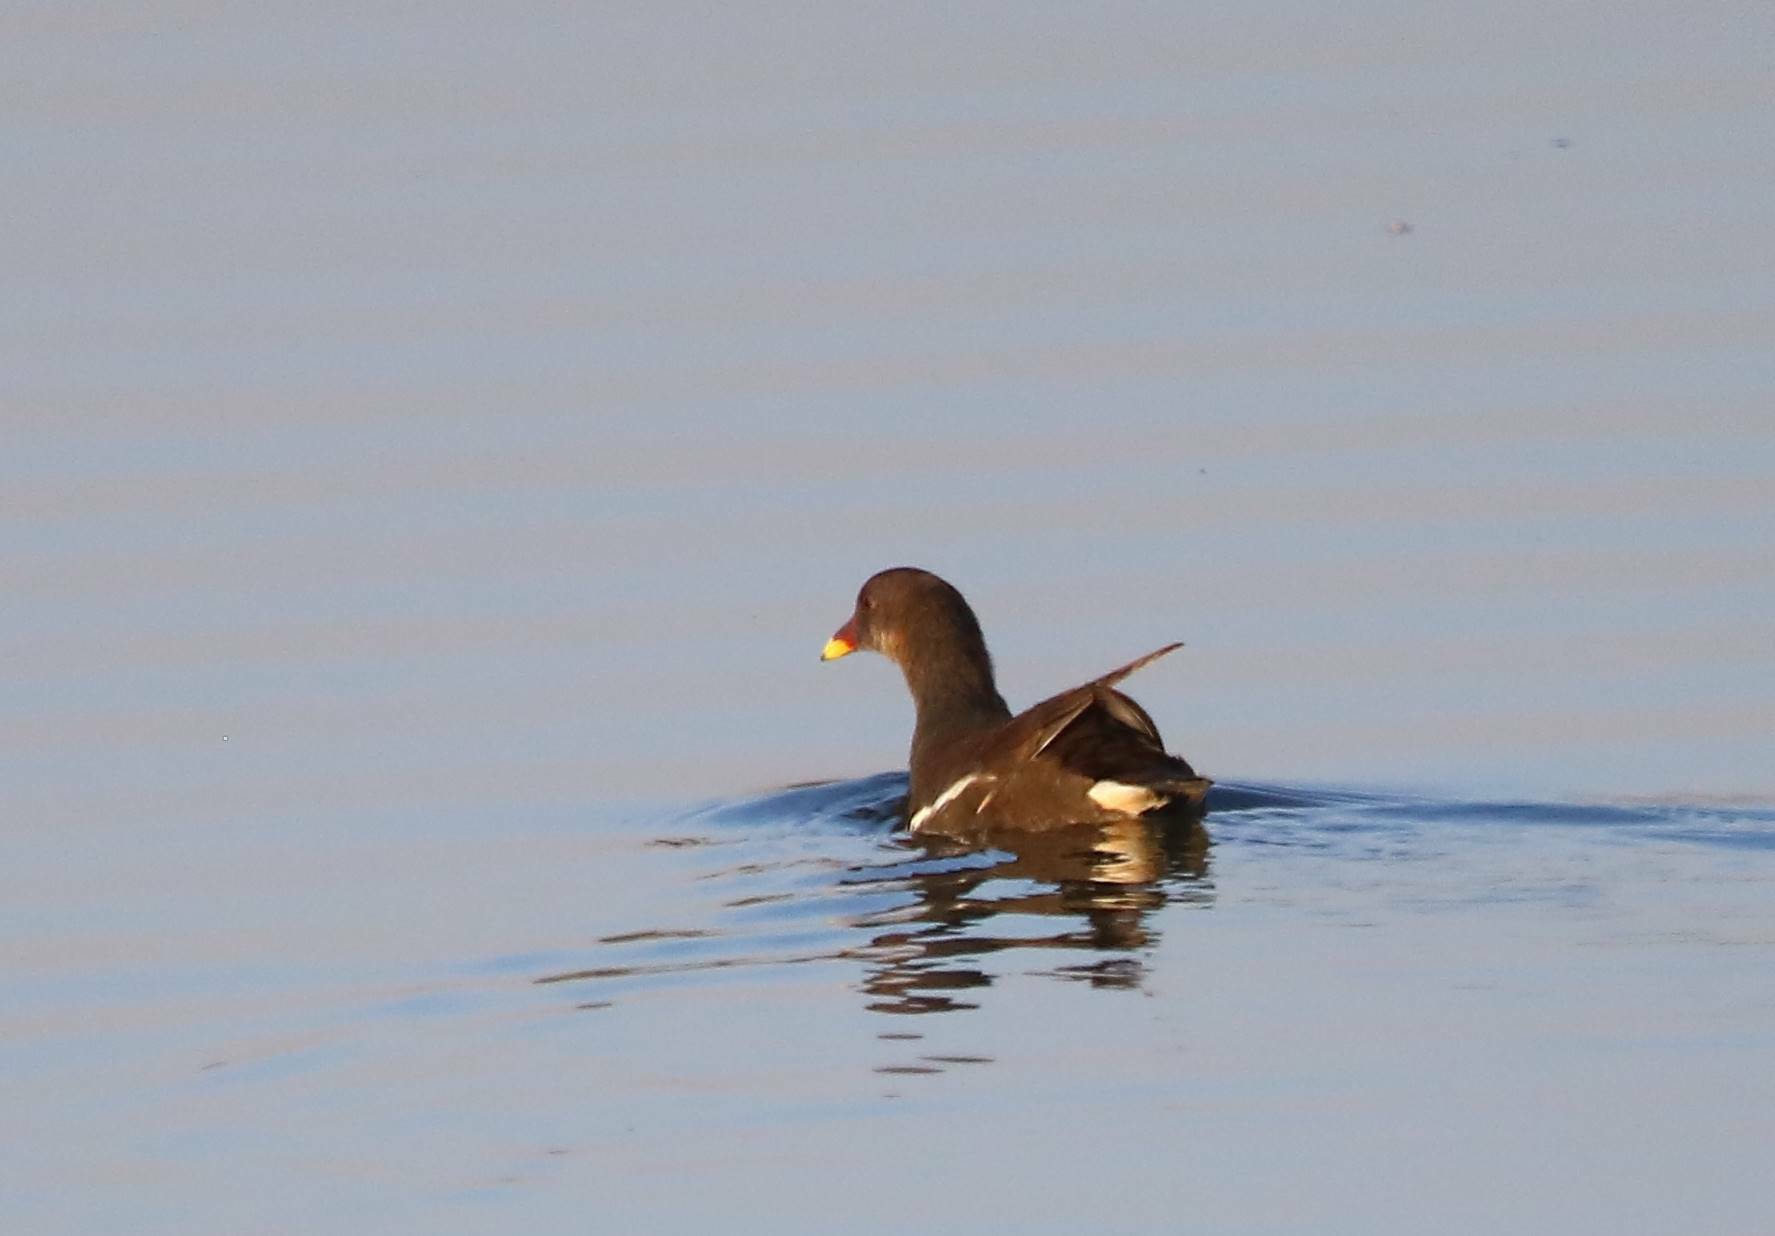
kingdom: Animalia
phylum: Chordata
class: Aves
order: Gruiformes
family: Rallidae
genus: Gallinula
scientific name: Gallinula chloropus
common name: Common moorhen
